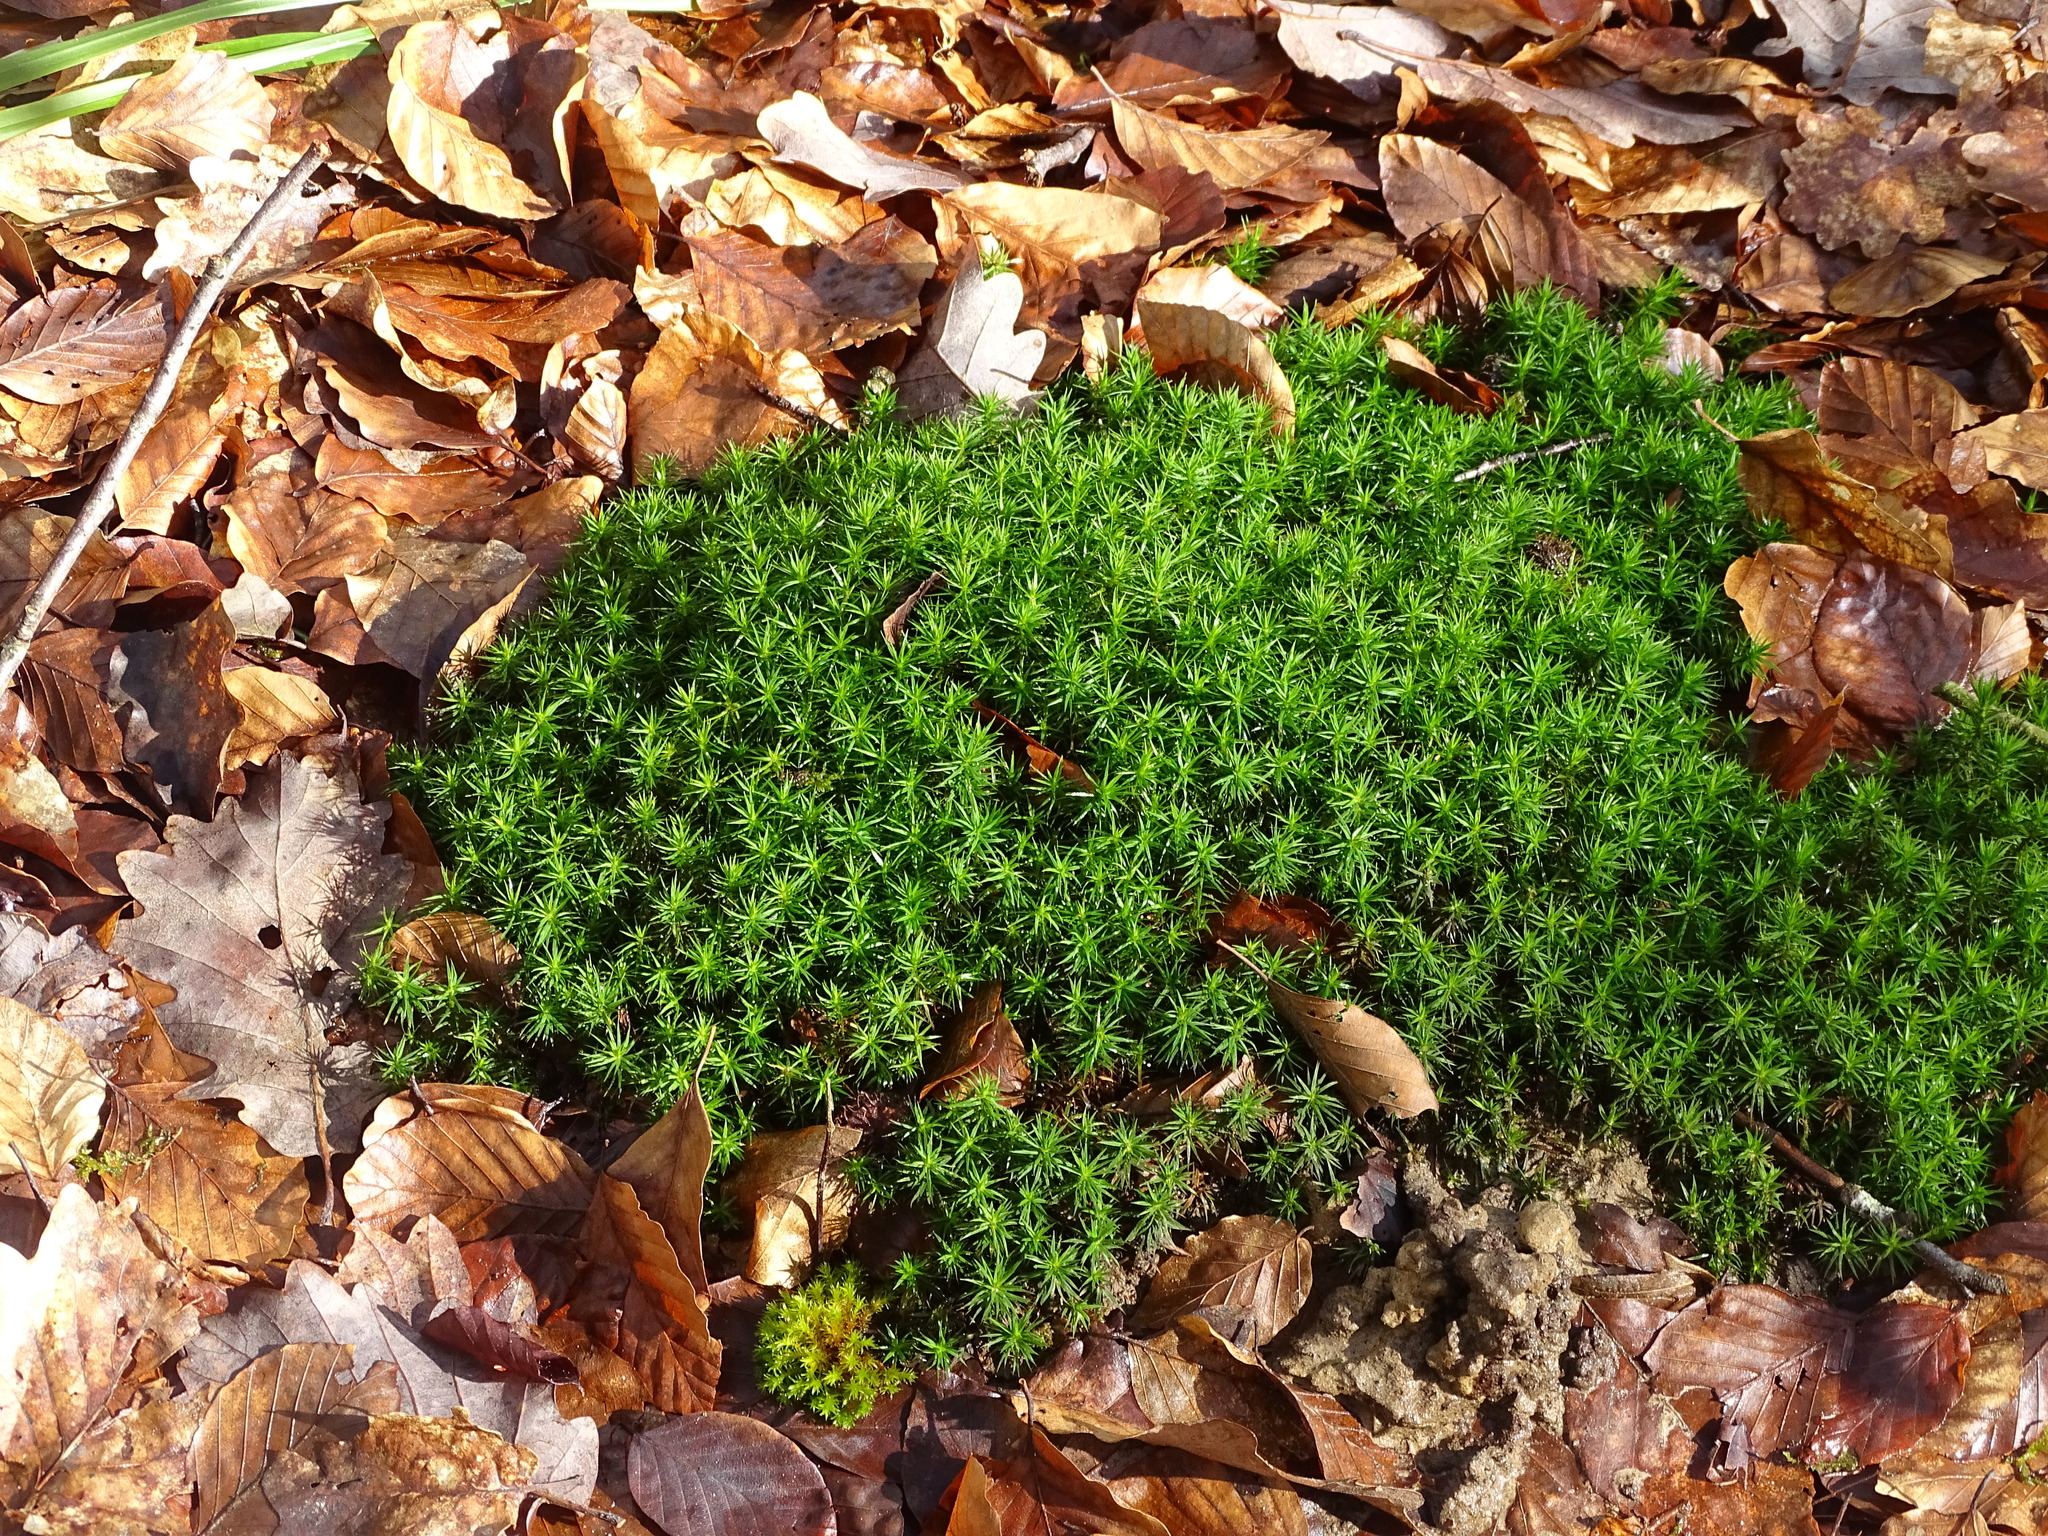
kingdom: Plantae
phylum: Bryophyta
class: Polytrichopsida
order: Polytrichales
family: Polytrichaceae
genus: Polytrichum
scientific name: Polytrichum formosum
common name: Bank haircap moss
